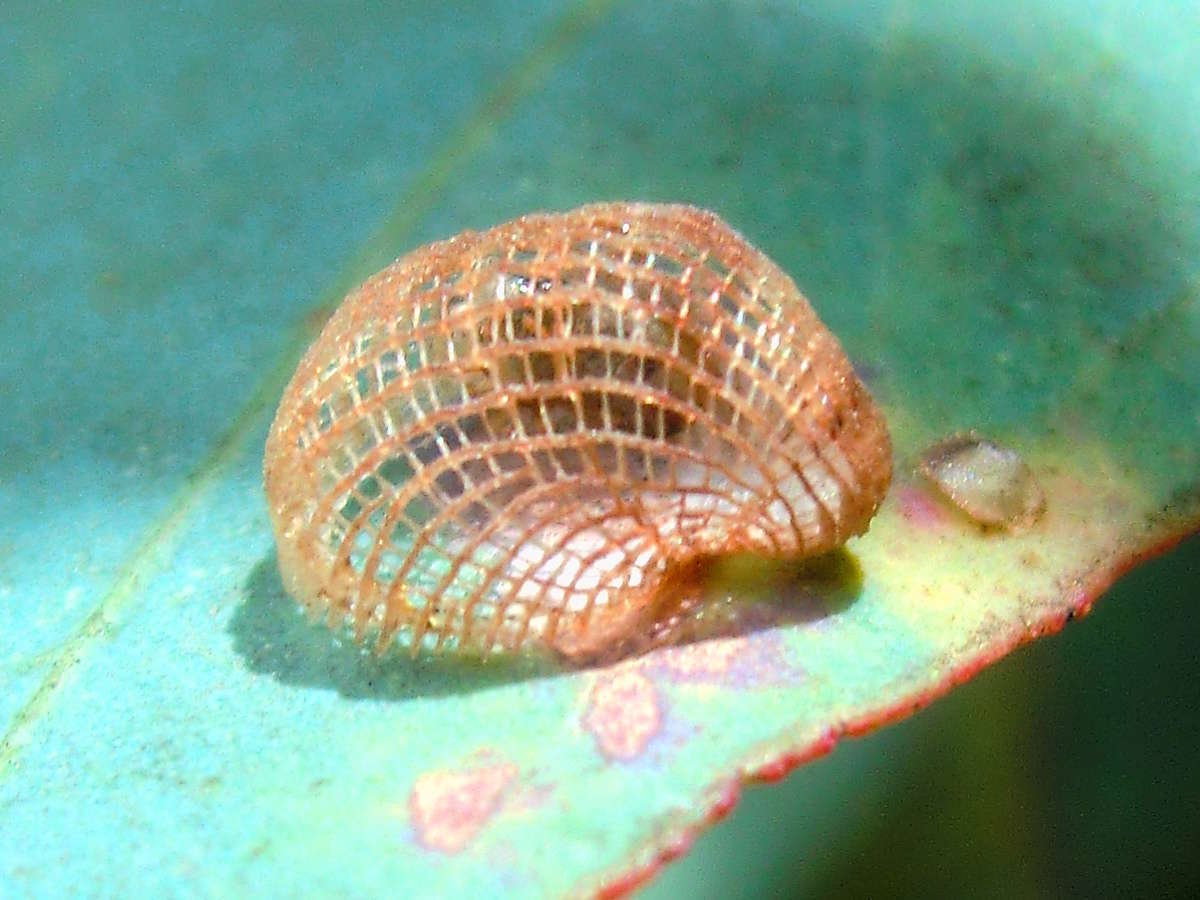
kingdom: Animalia
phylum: Arthropoda
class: Insecta
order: Hemiptera
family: Aphalaridae
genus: Cardiaspina
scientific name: Cardiaspina textrix
